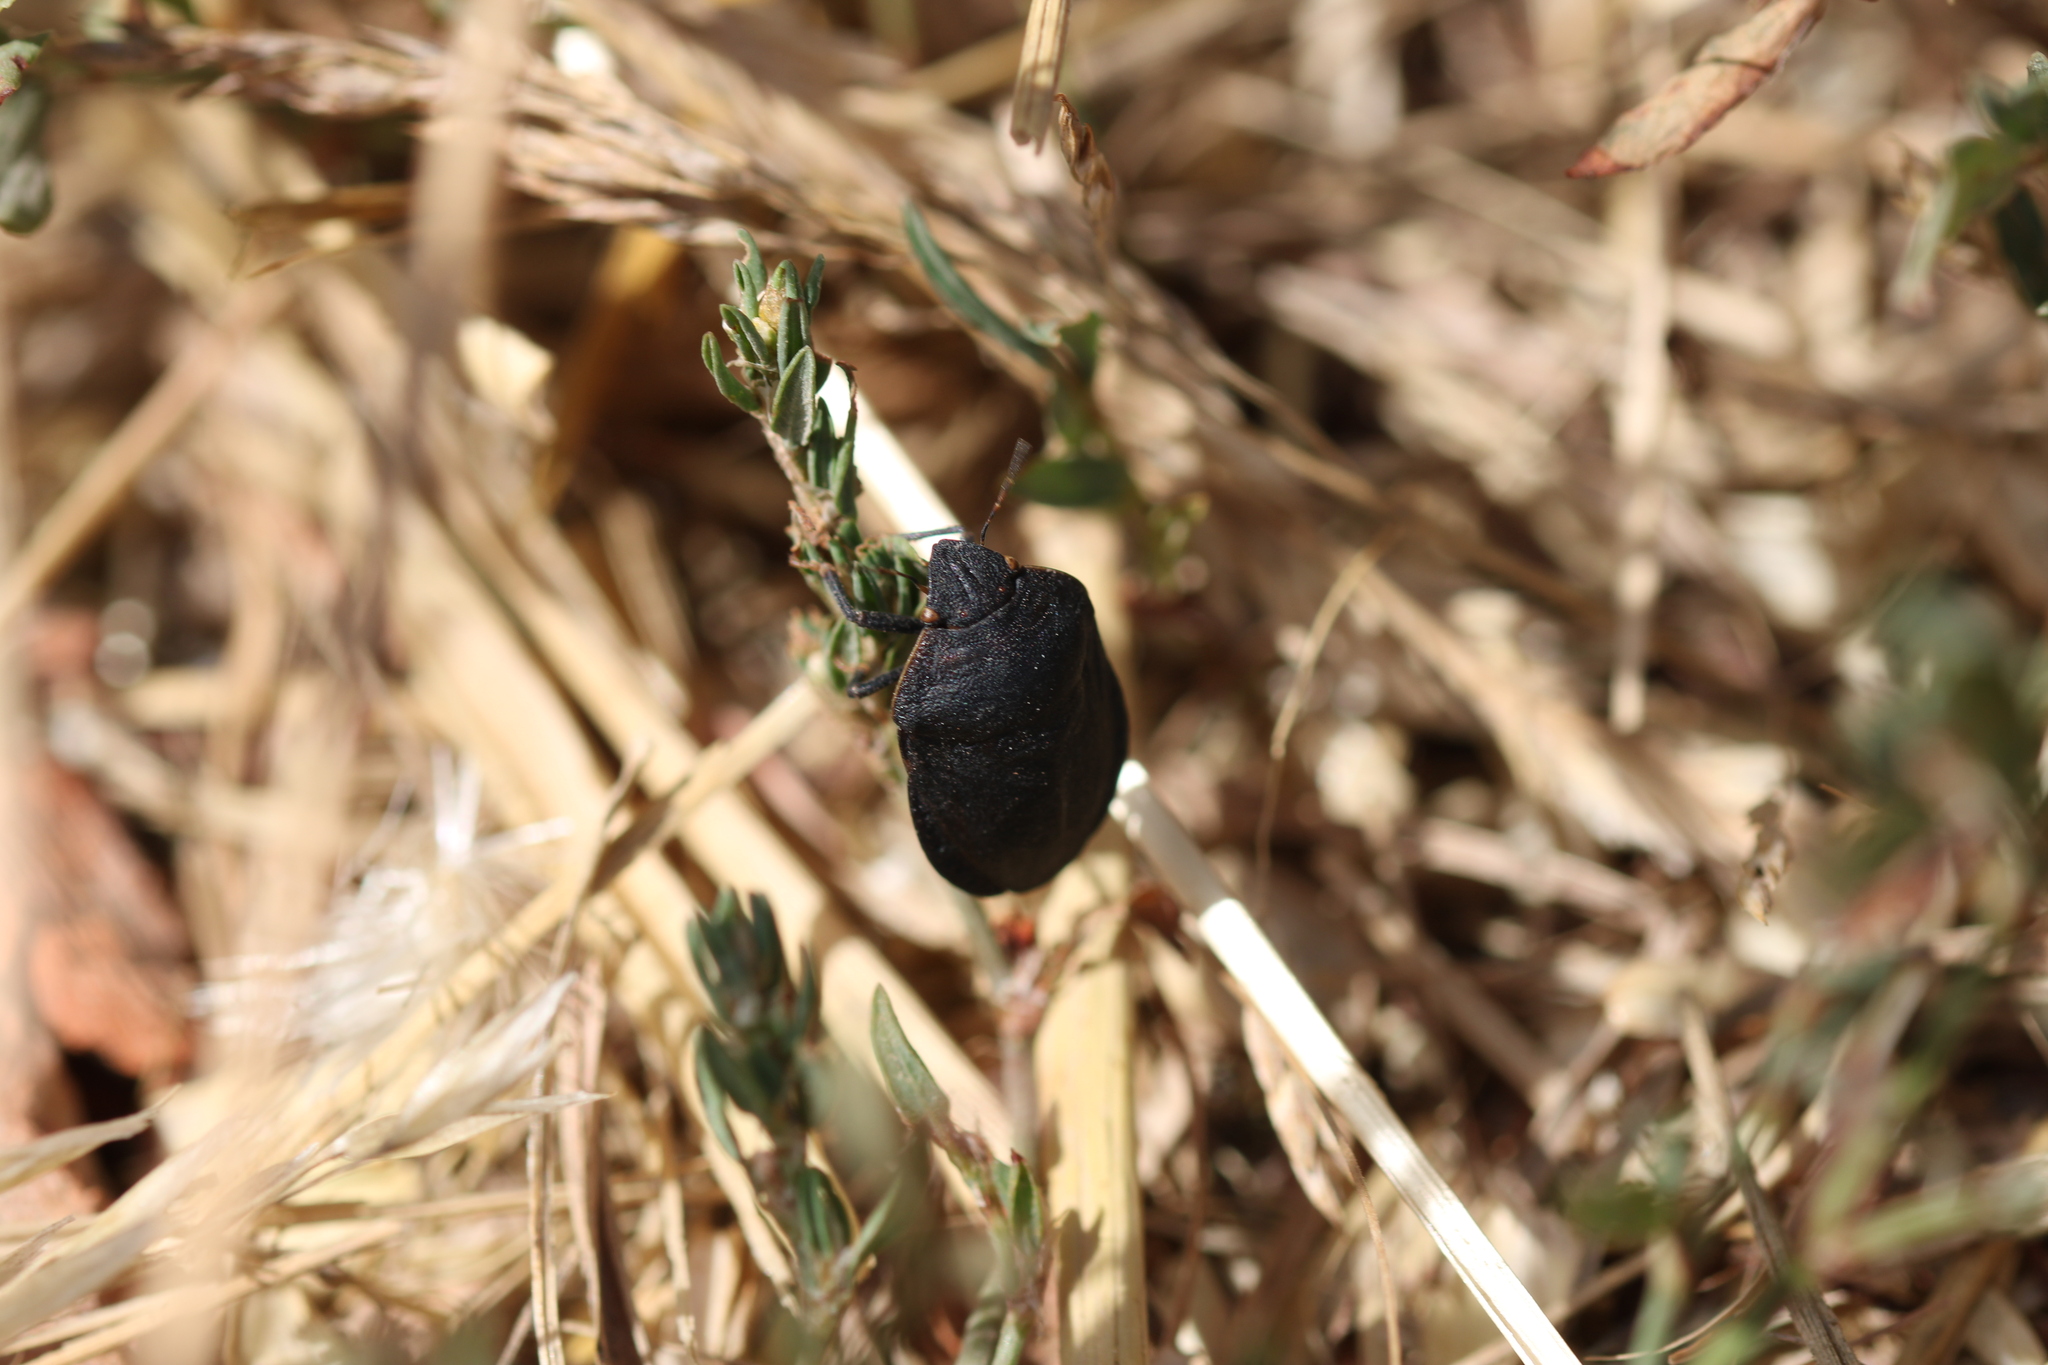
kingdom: Animalia
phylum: Arthropoda
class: Insecta
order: Hemiptera
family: Scutelleridae
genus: Eurygaster
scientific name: Eurygaster austriaca
